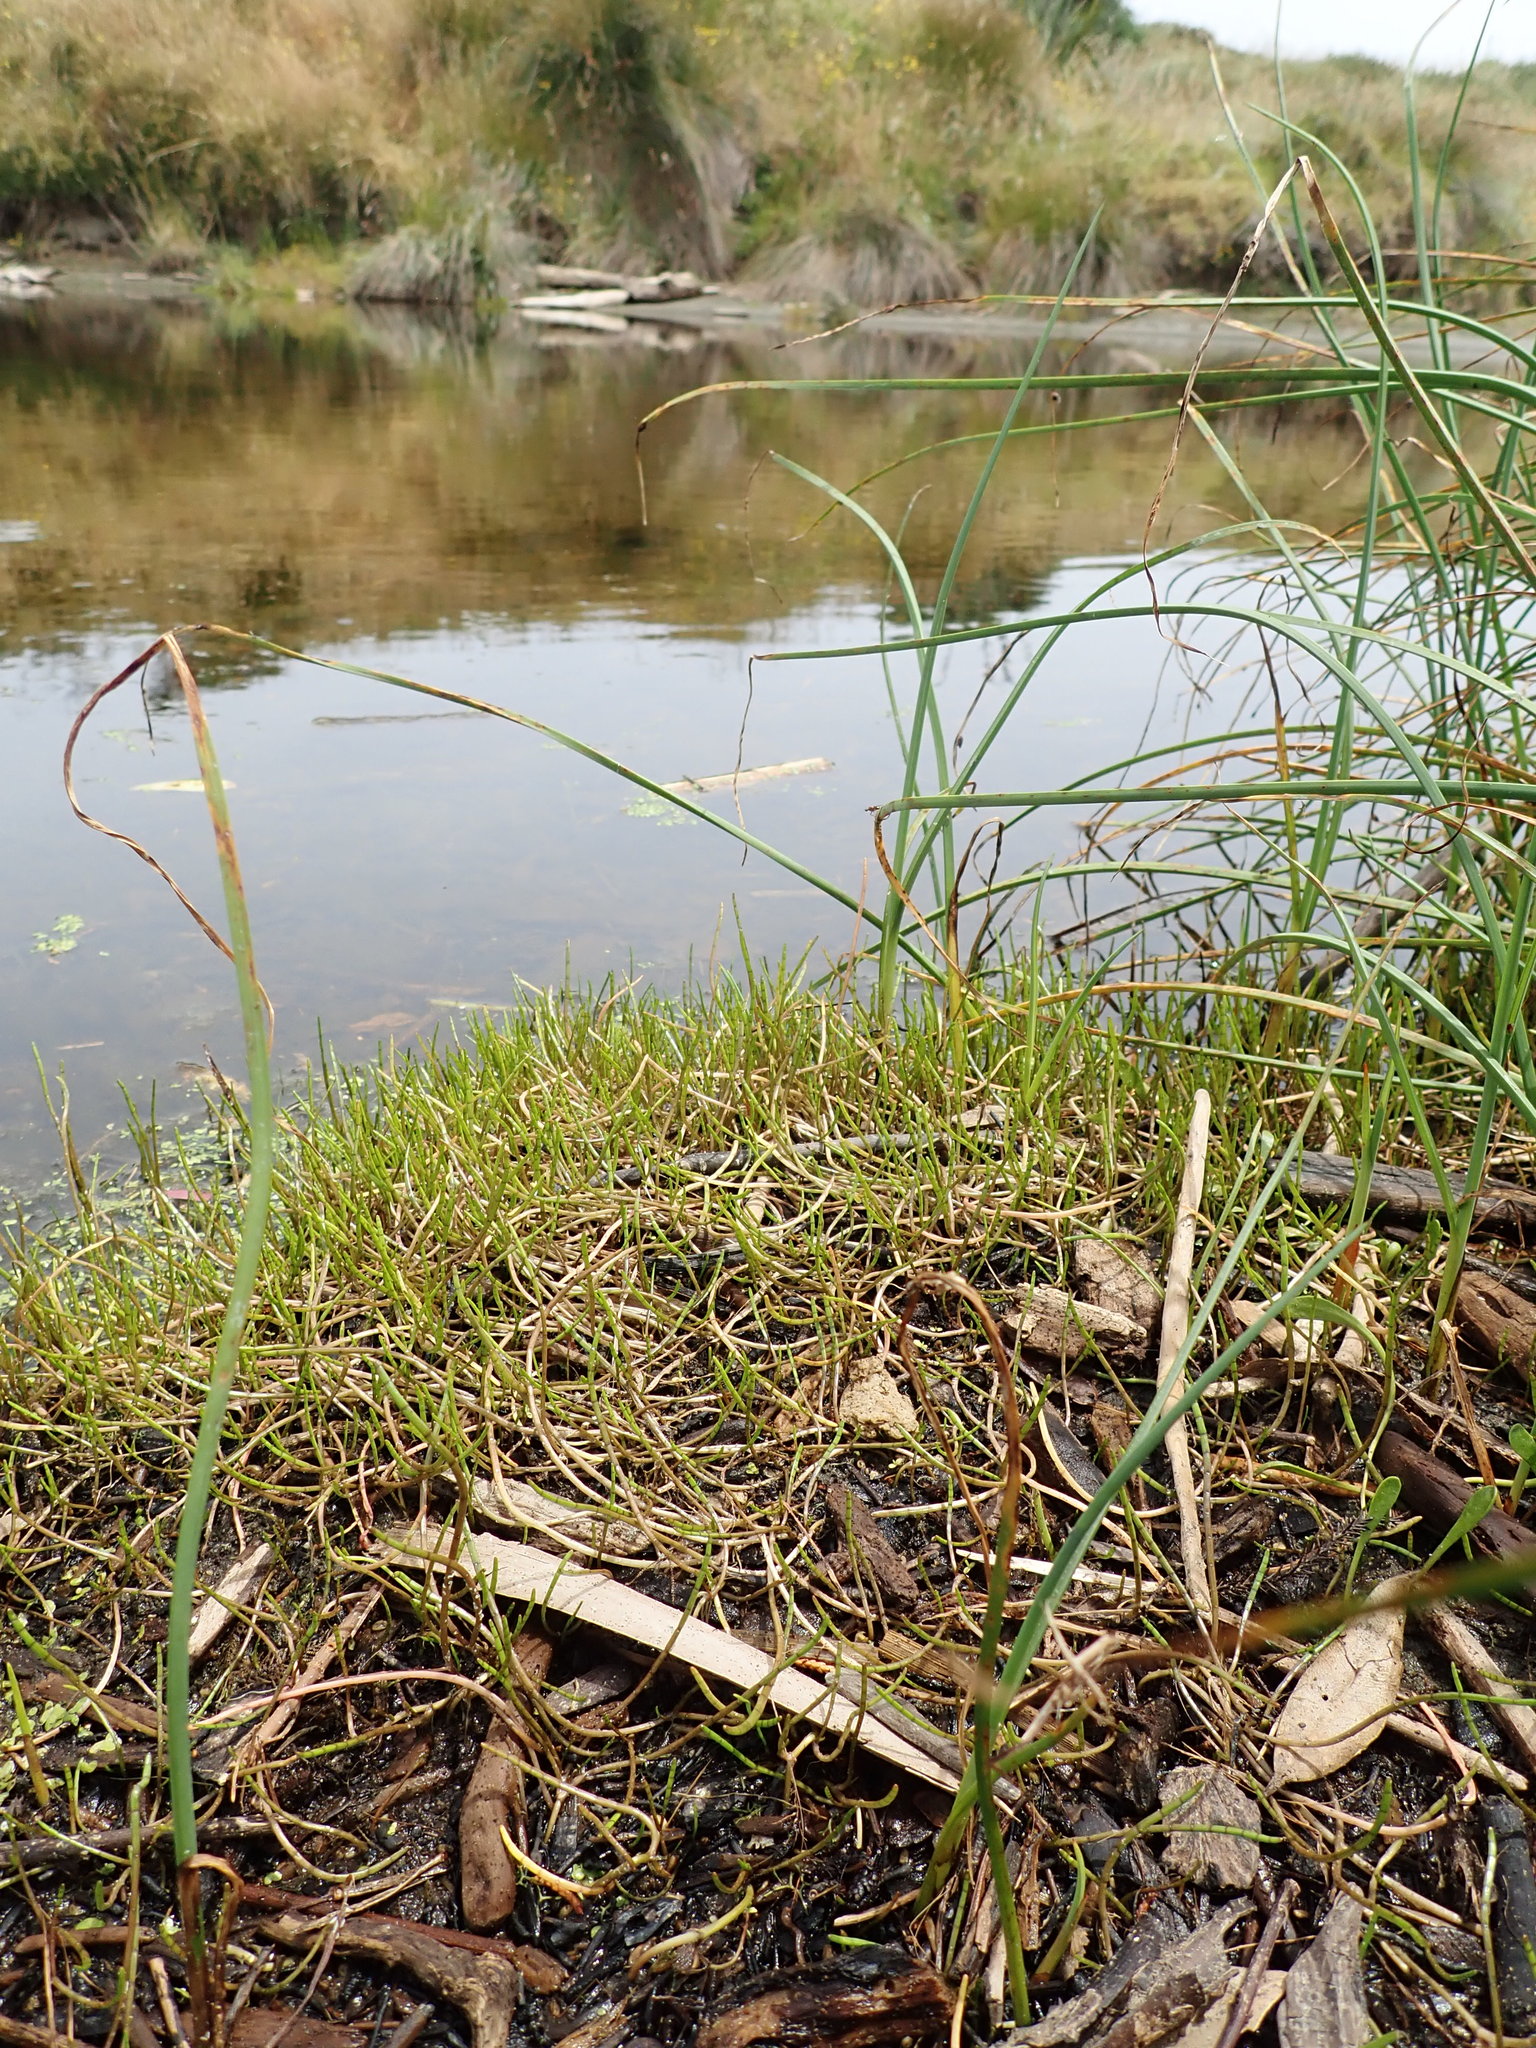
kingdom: Plantae
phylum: Tracheophyta
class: Magnoliopsida
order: Apiales
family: Apiaceae
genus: Lilaeopsis
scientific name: Lilaeopsis novae-zelandiae
